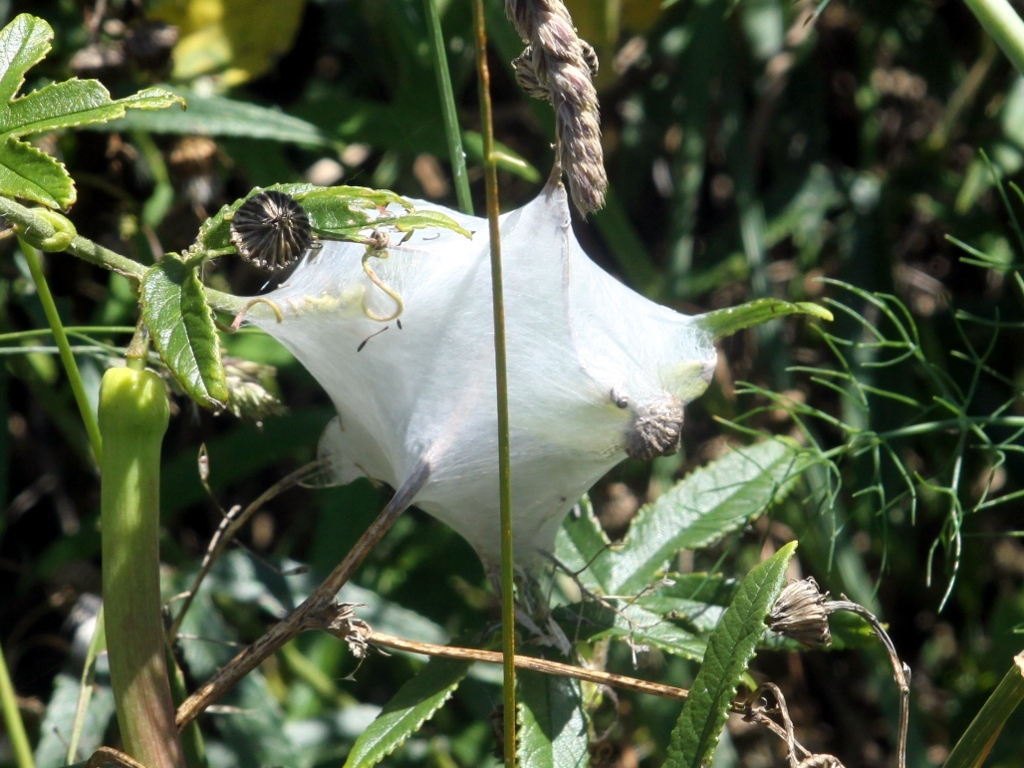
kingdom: Animalia
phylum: Arthropoda
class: Arachnida
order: Araneae
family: Pisauridae
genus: Dolomedes
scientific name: Dolomedes minor
